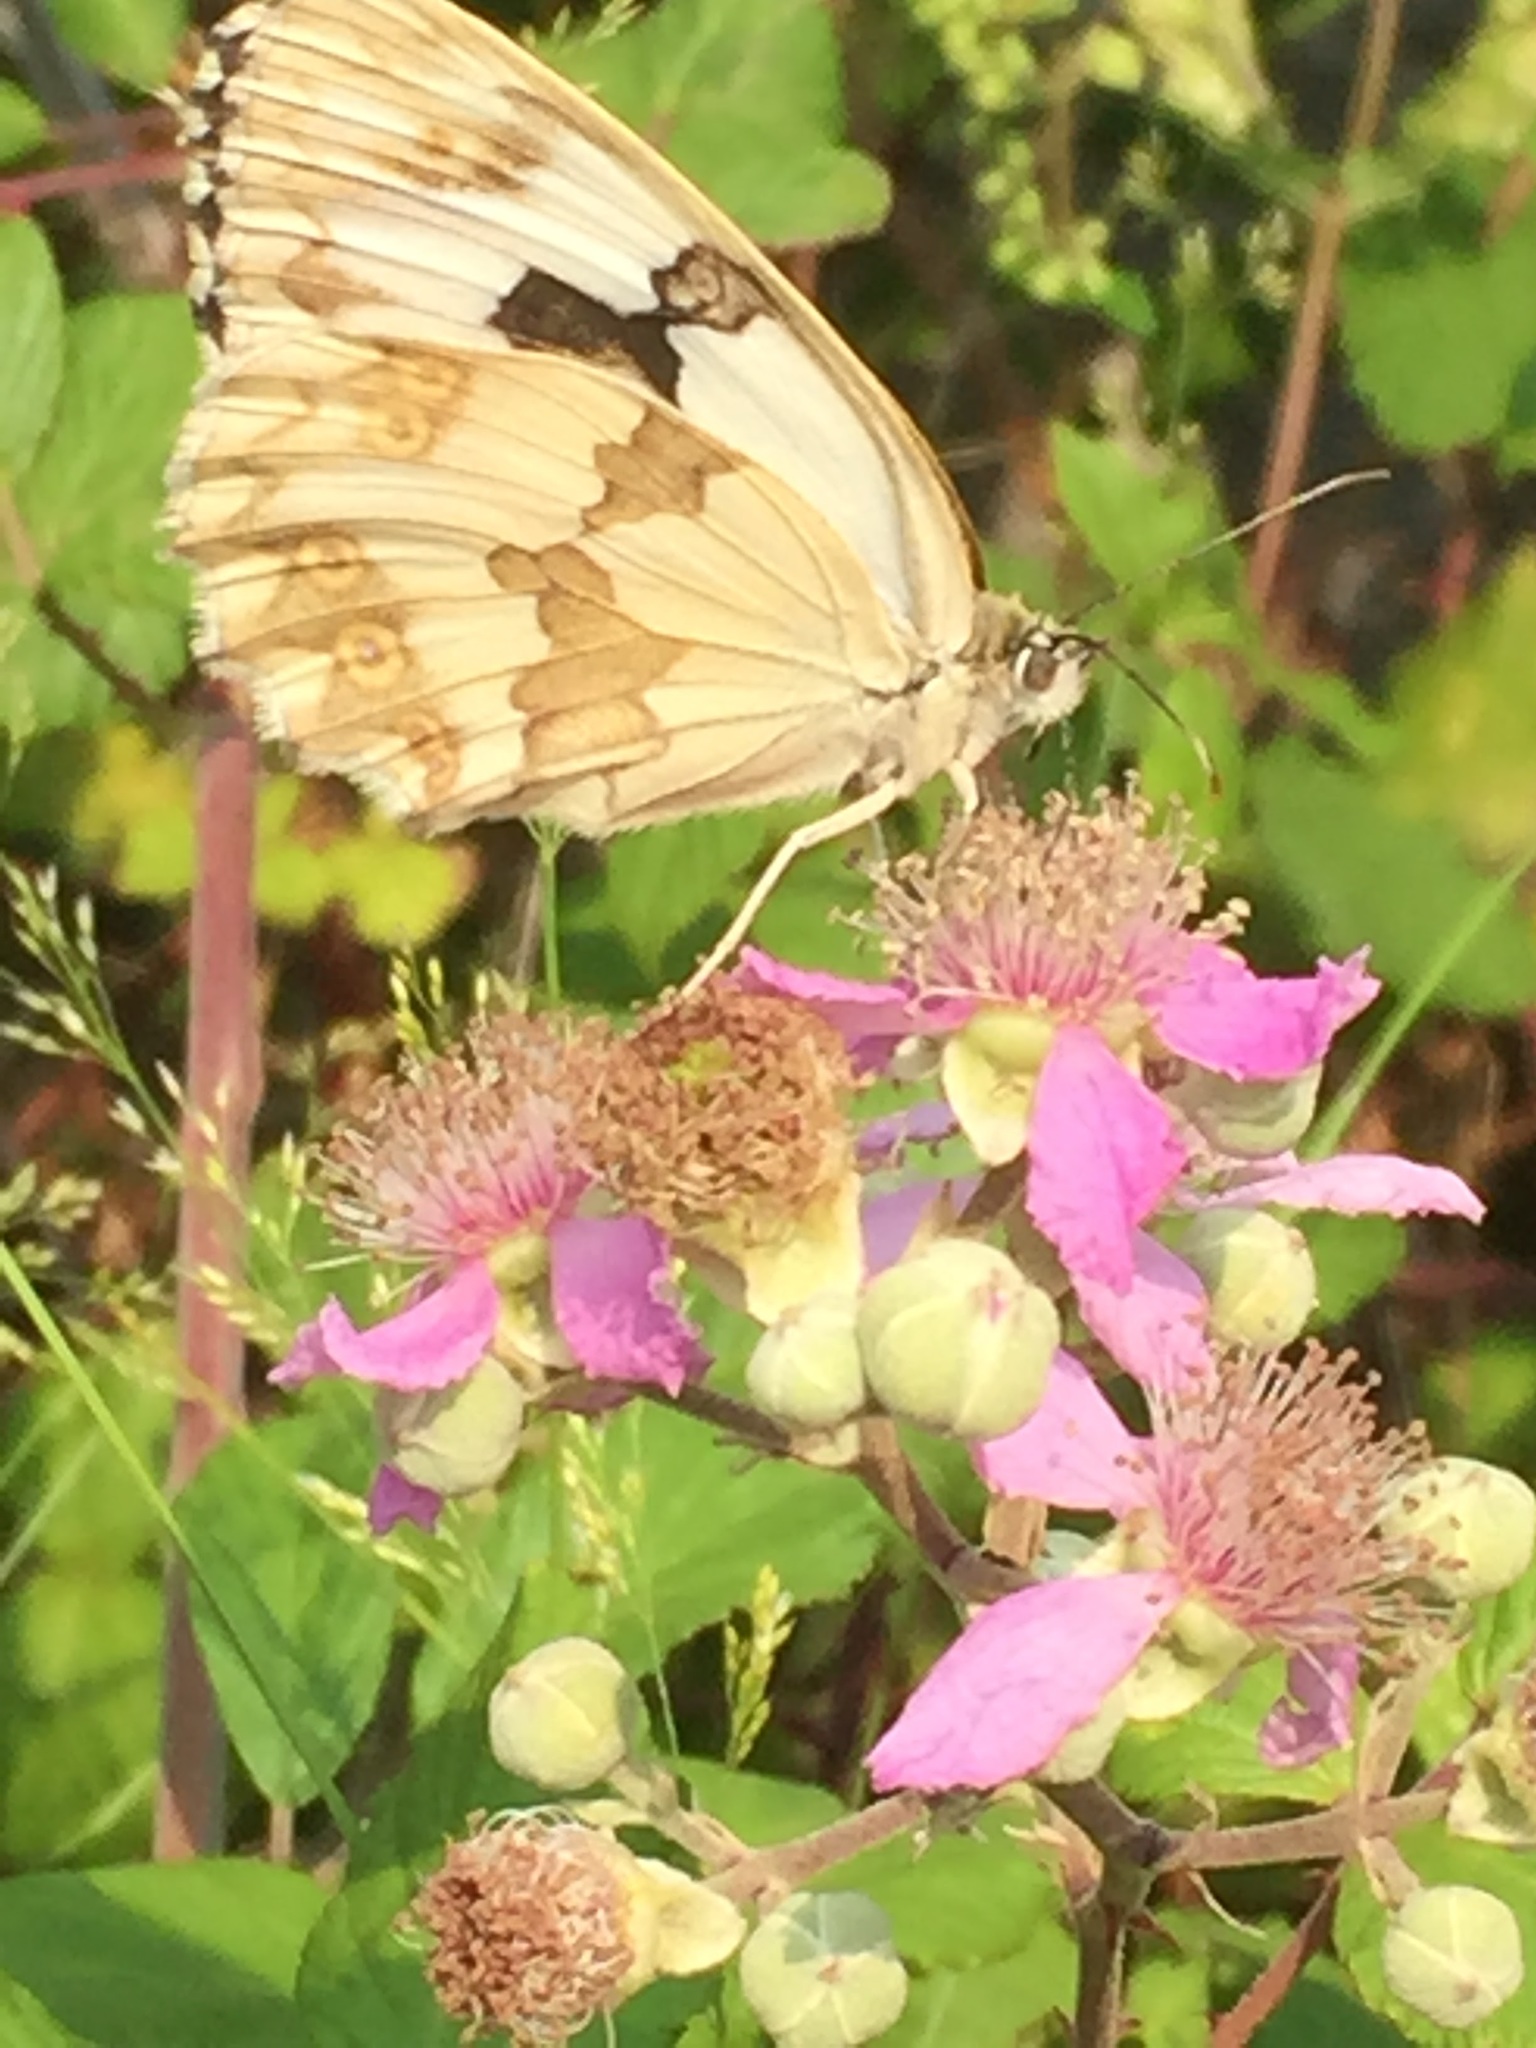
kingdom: Plantae
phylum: Tracheophyta
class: Magnoliopsida
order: Rosales
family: Rosaceae
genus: Rubus
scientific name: Rubus ulmifolius
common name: Elmleaf blackberry
